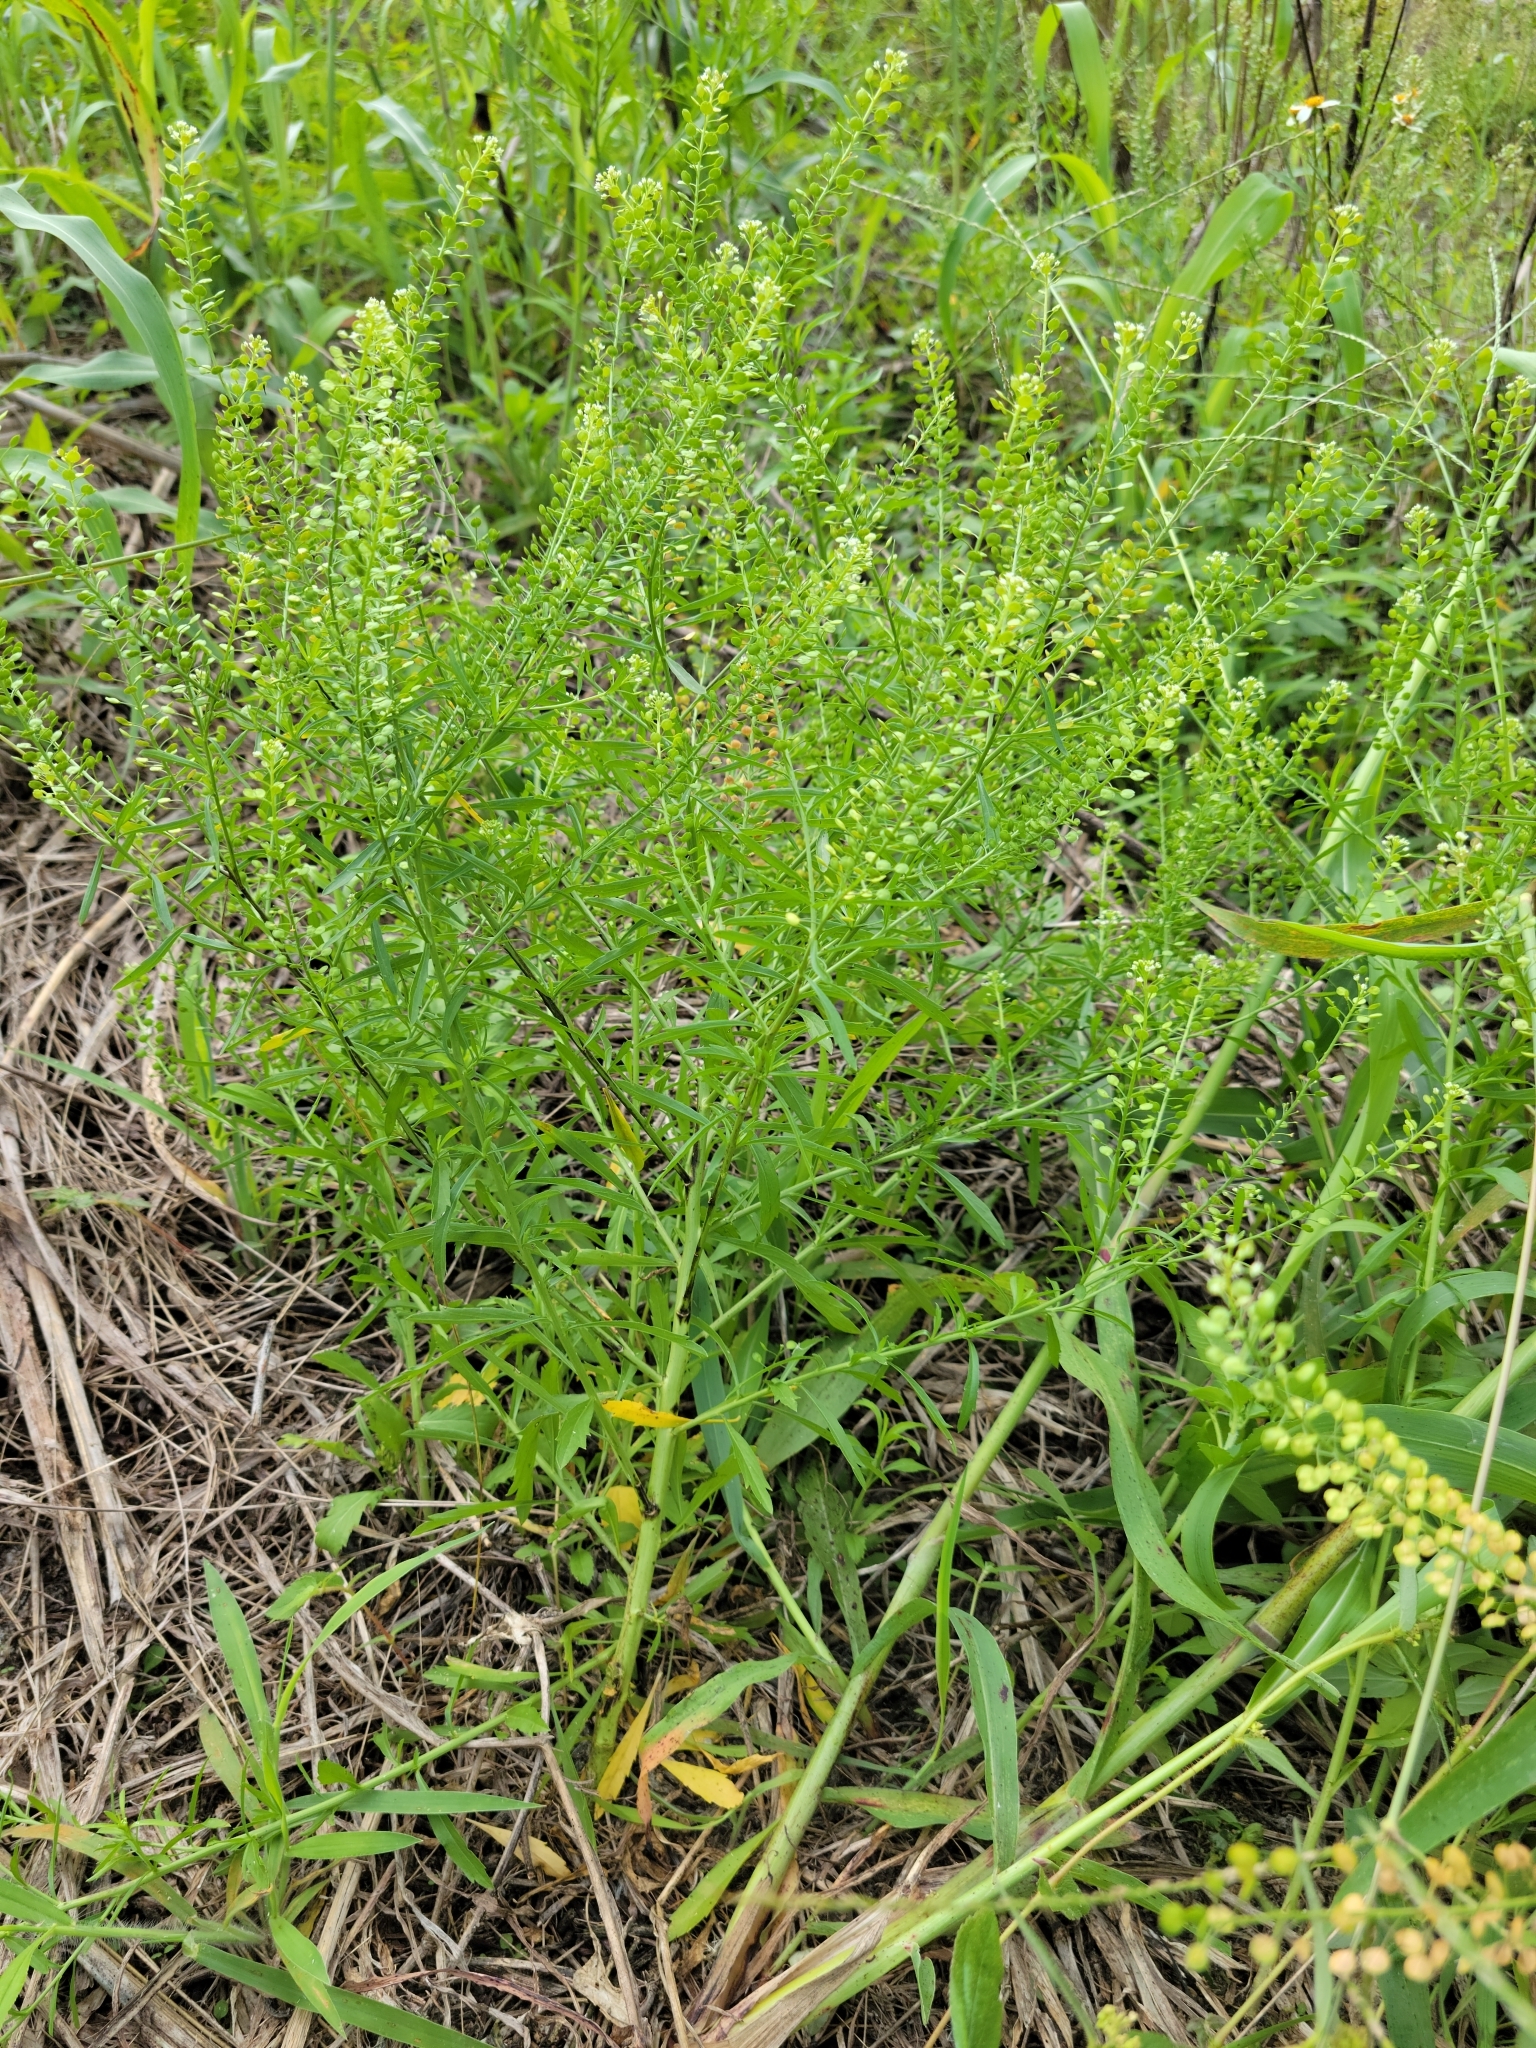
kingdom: Plantae
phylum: Tracheophyta
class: Magnoliopsida
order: Brassicales
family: Brassicaceae
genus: Lepidium
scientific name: Lepidium virginicum
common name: Least pepperwort
